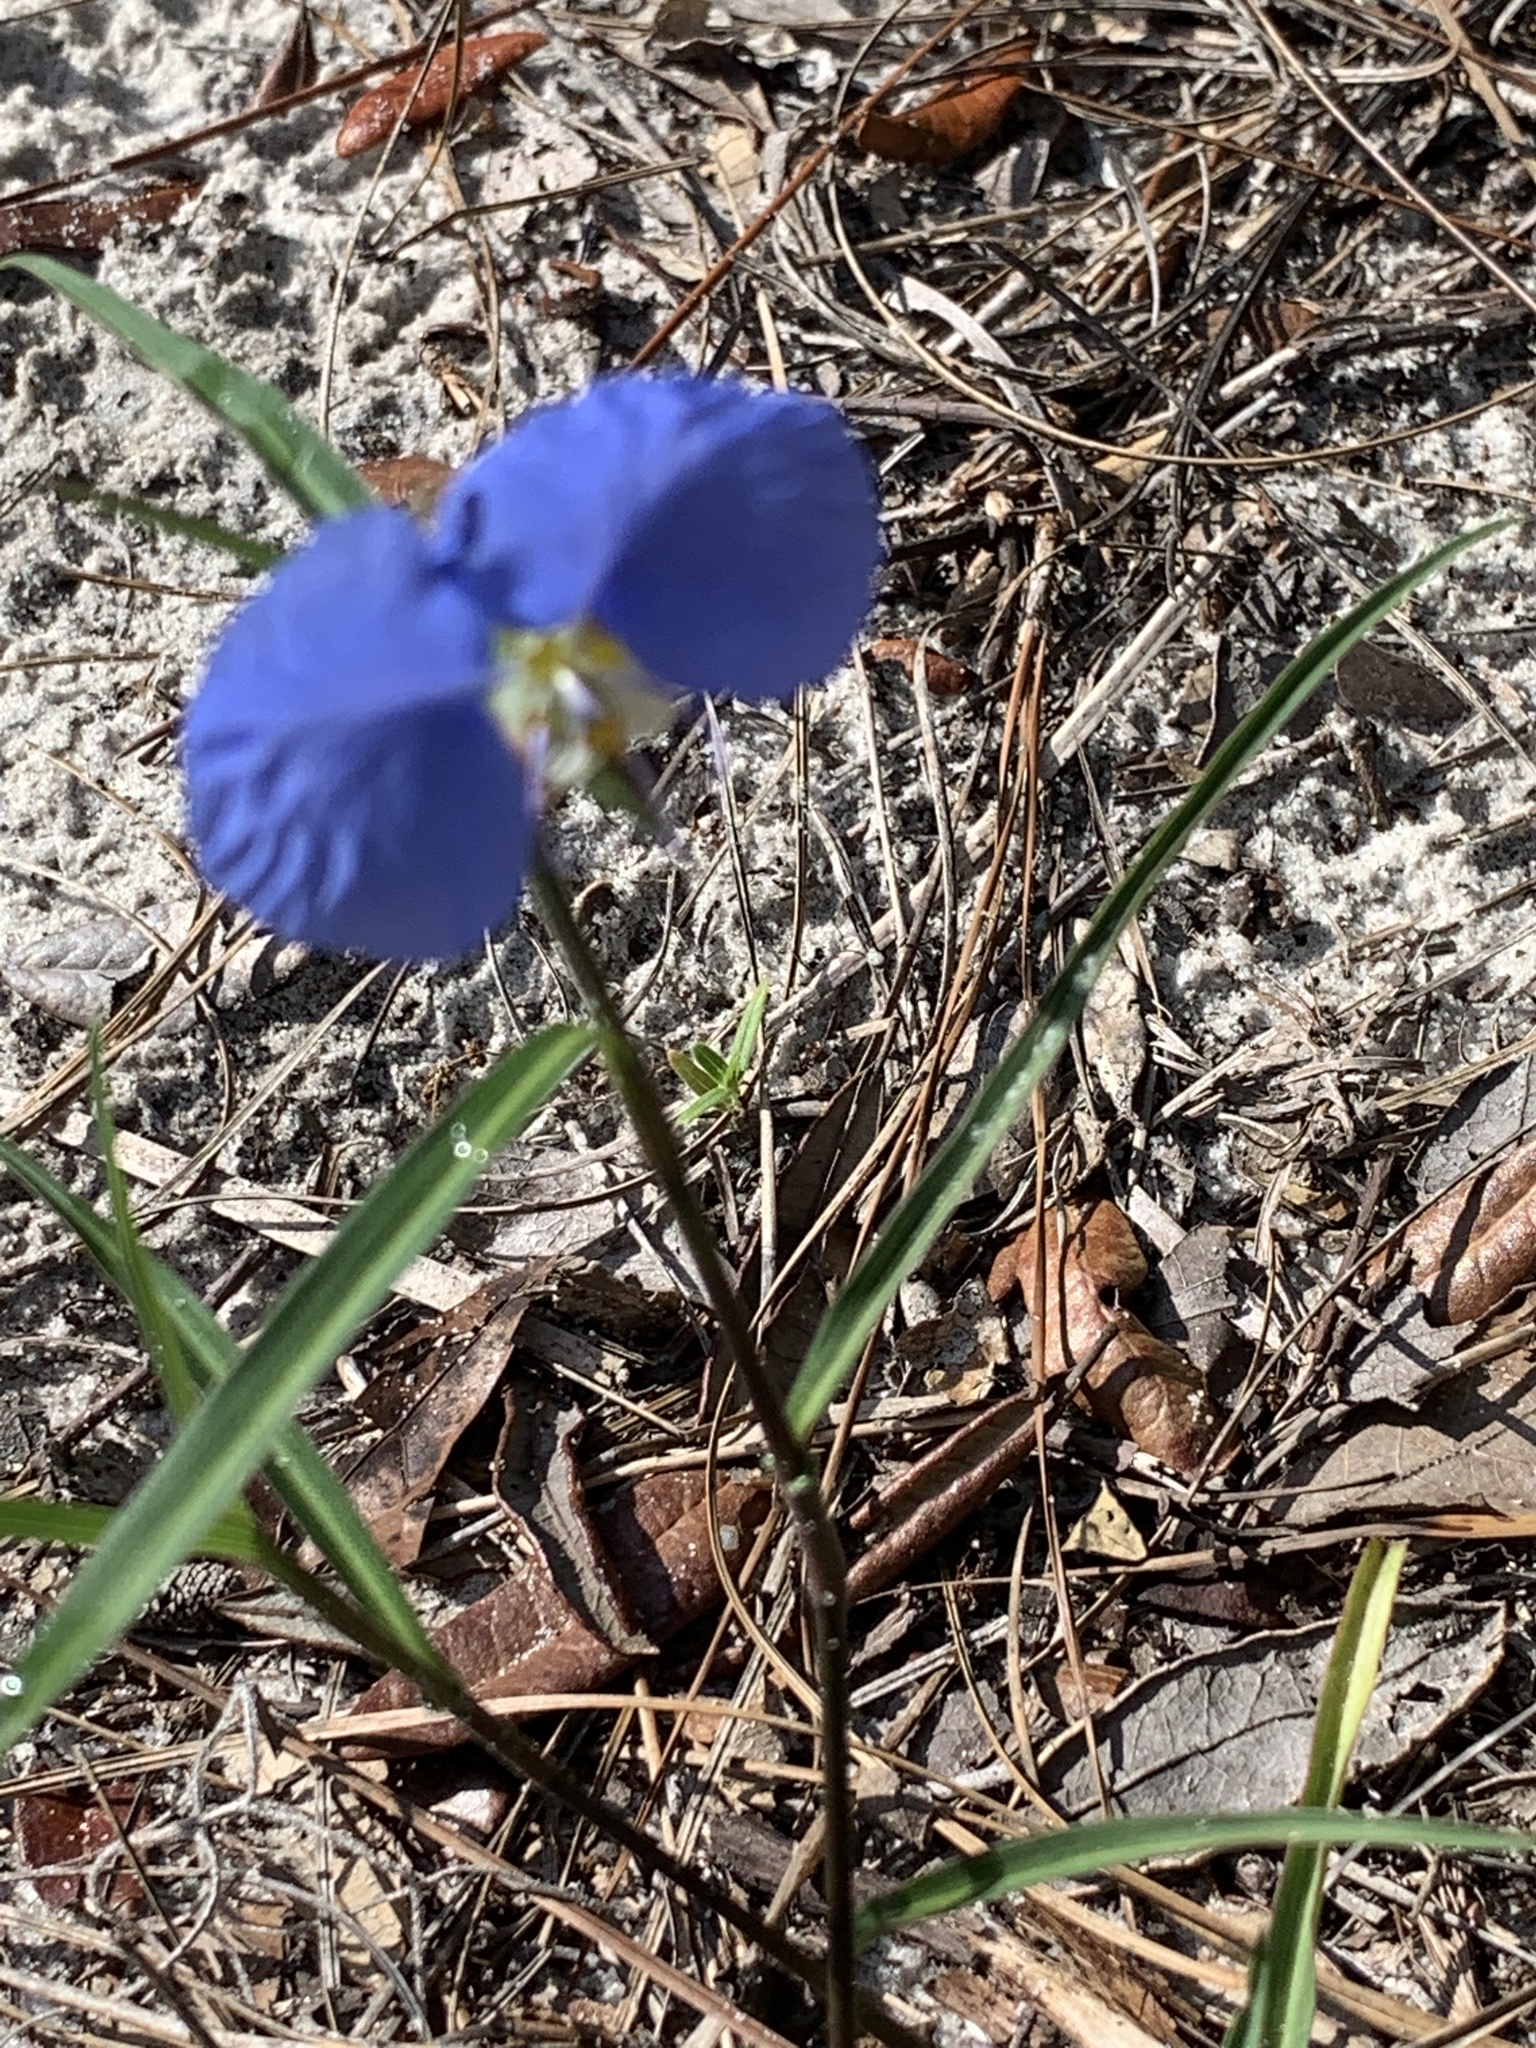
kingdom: Plantae
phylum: Tracheophyta
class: Liliopsida
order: Commelinales
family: Commelinaceae
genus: Commelina
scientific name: Commelina erecta
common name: Blousel blommetjie
